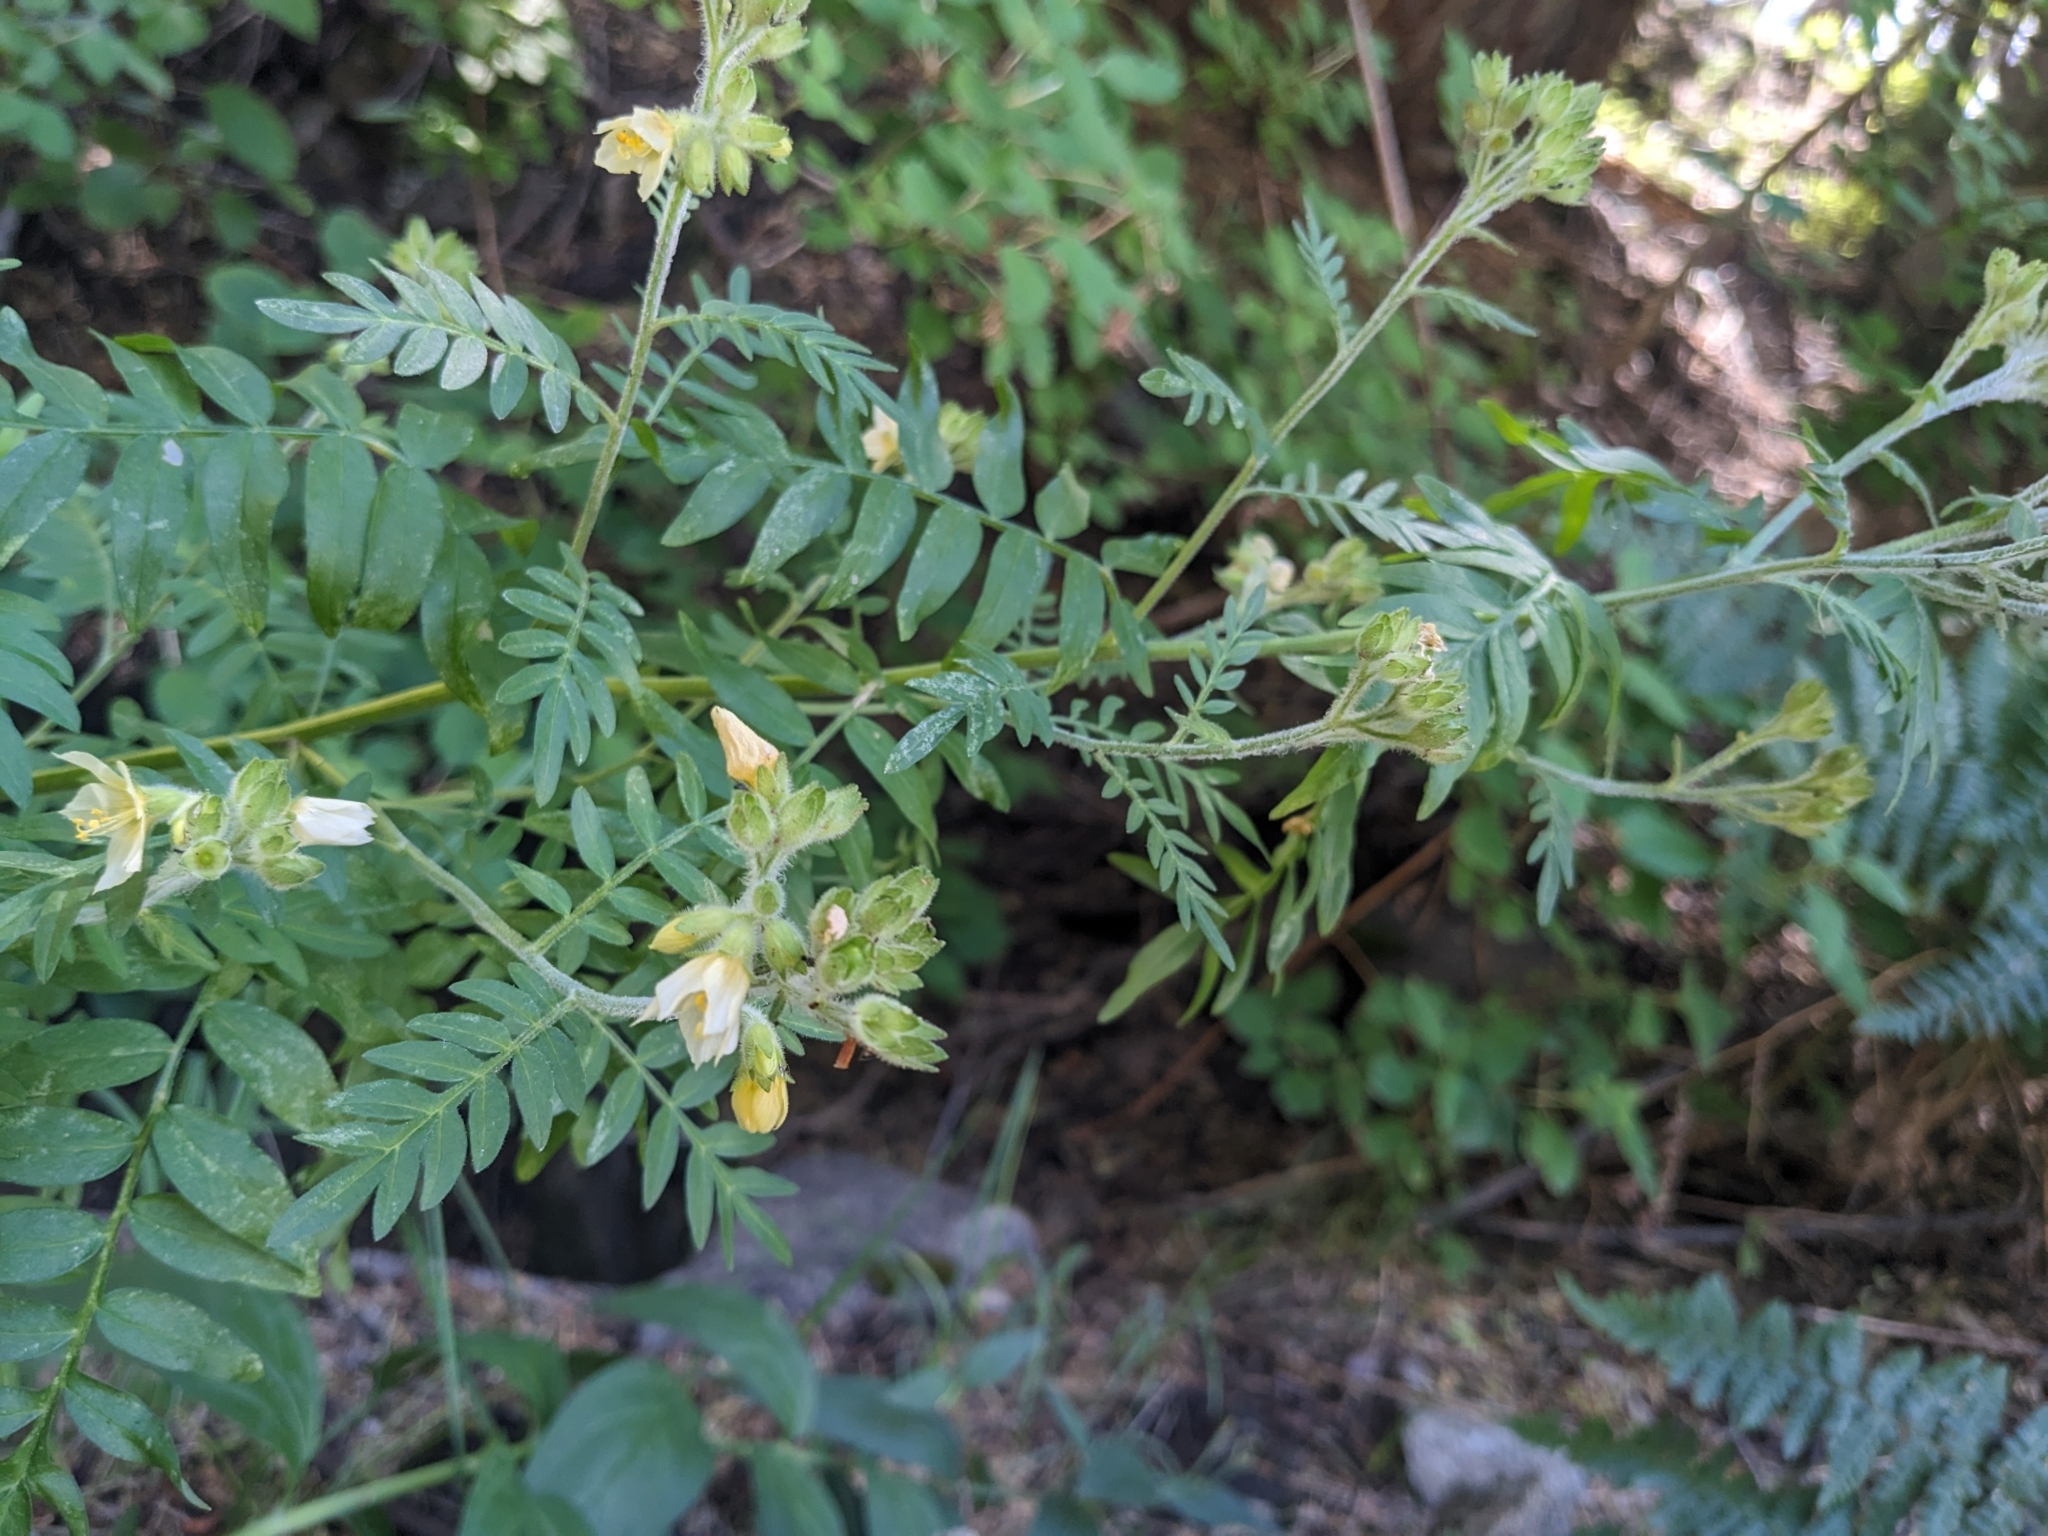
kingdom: Plantae
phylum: Tracheophyta
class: Magnoliopsida
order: Ericales
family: Polemoniaceae
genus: Polemonium
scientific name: Polemonium foliosissimum
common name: Leafy jacob's-ladder
